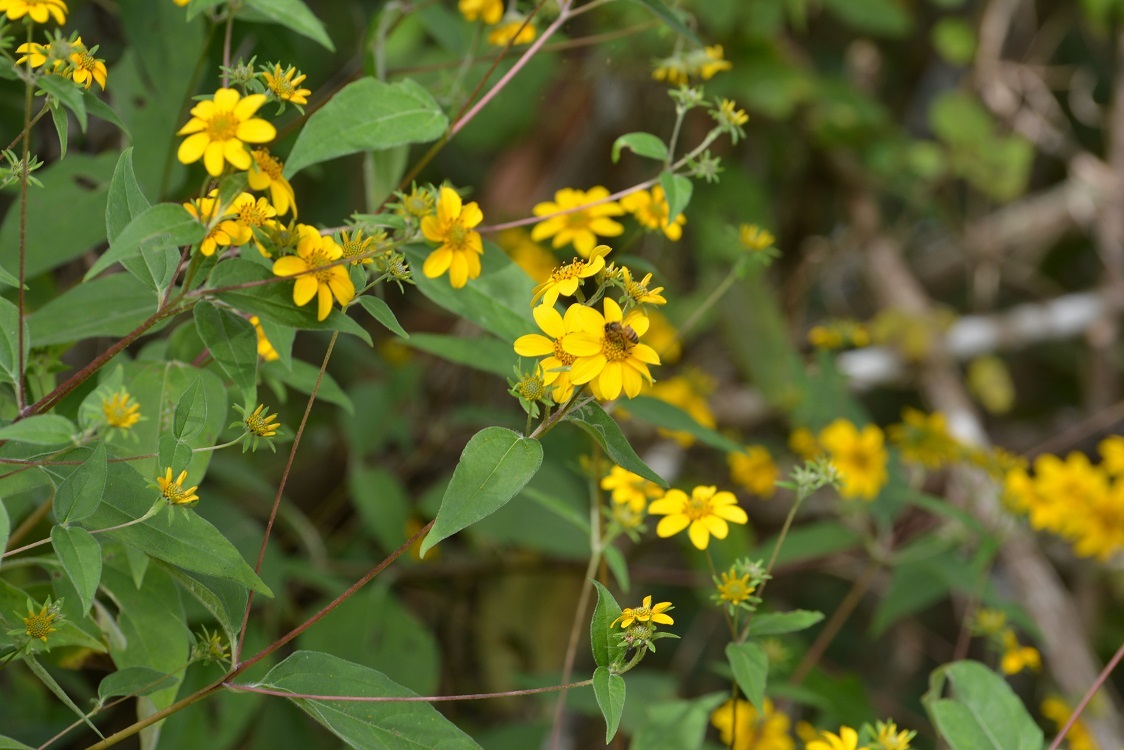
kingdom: Plantae
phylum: Tracheophyta
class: Magnoliopsida
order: Asterales
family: Asteraceae
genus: Verbesina
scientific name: Verbesina hypoglauca
